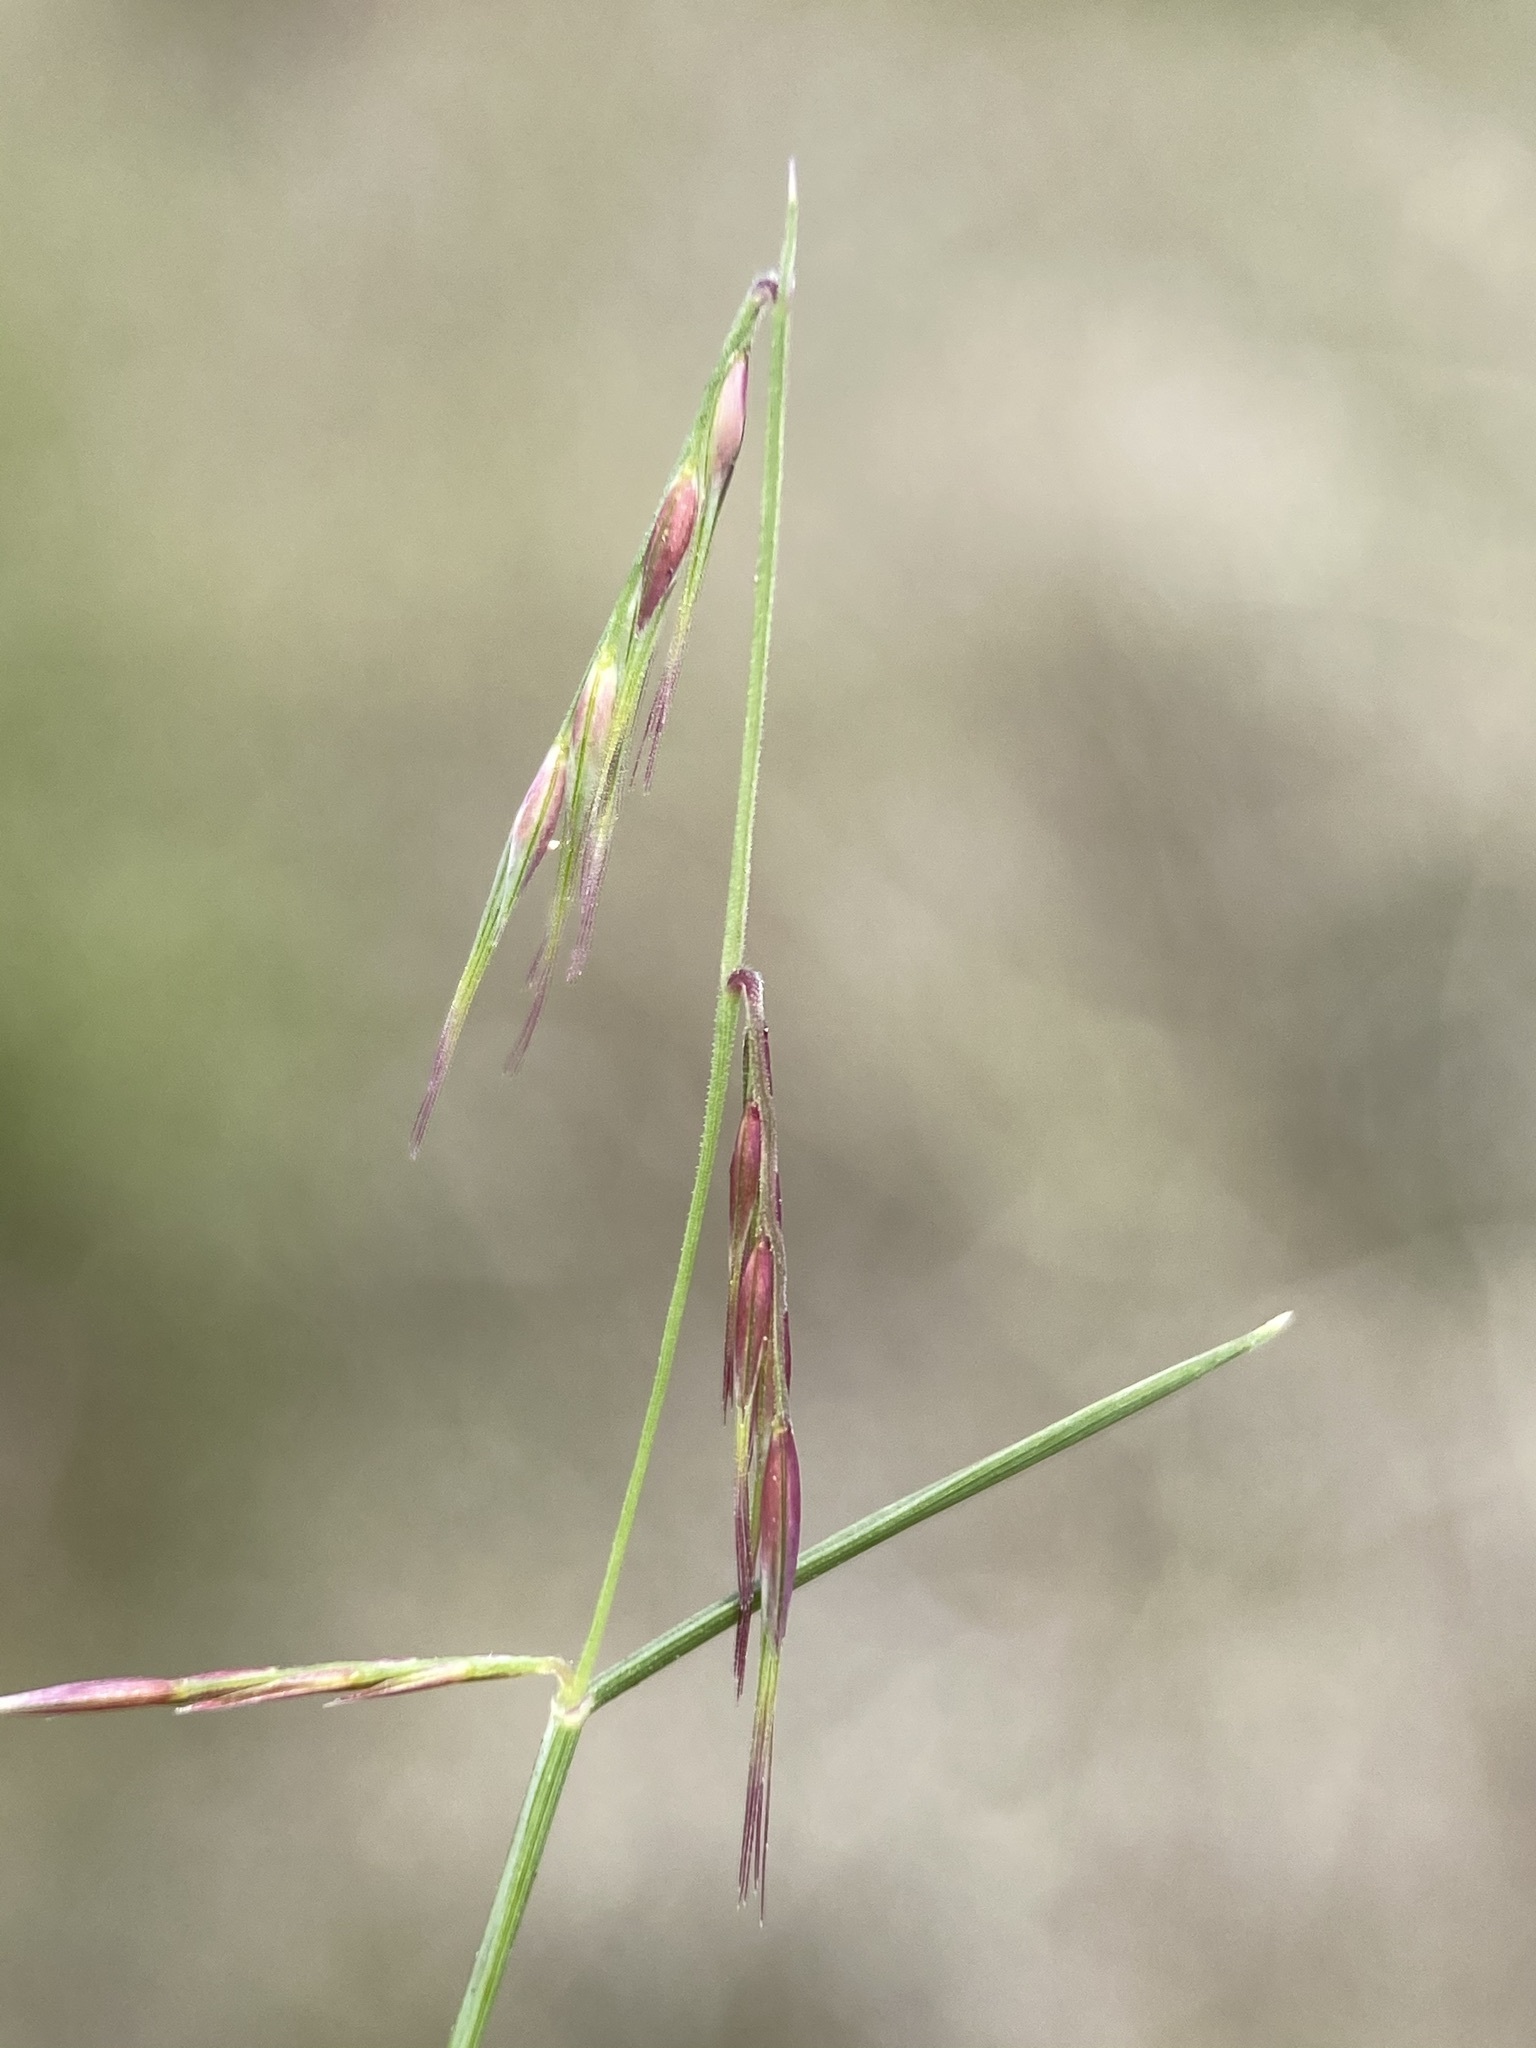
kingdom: Plantae
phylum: Tracheophyta
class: Liliopsida
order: Poales
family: Poaceae
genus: Bouteloua
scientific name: Bouteloua trifida
